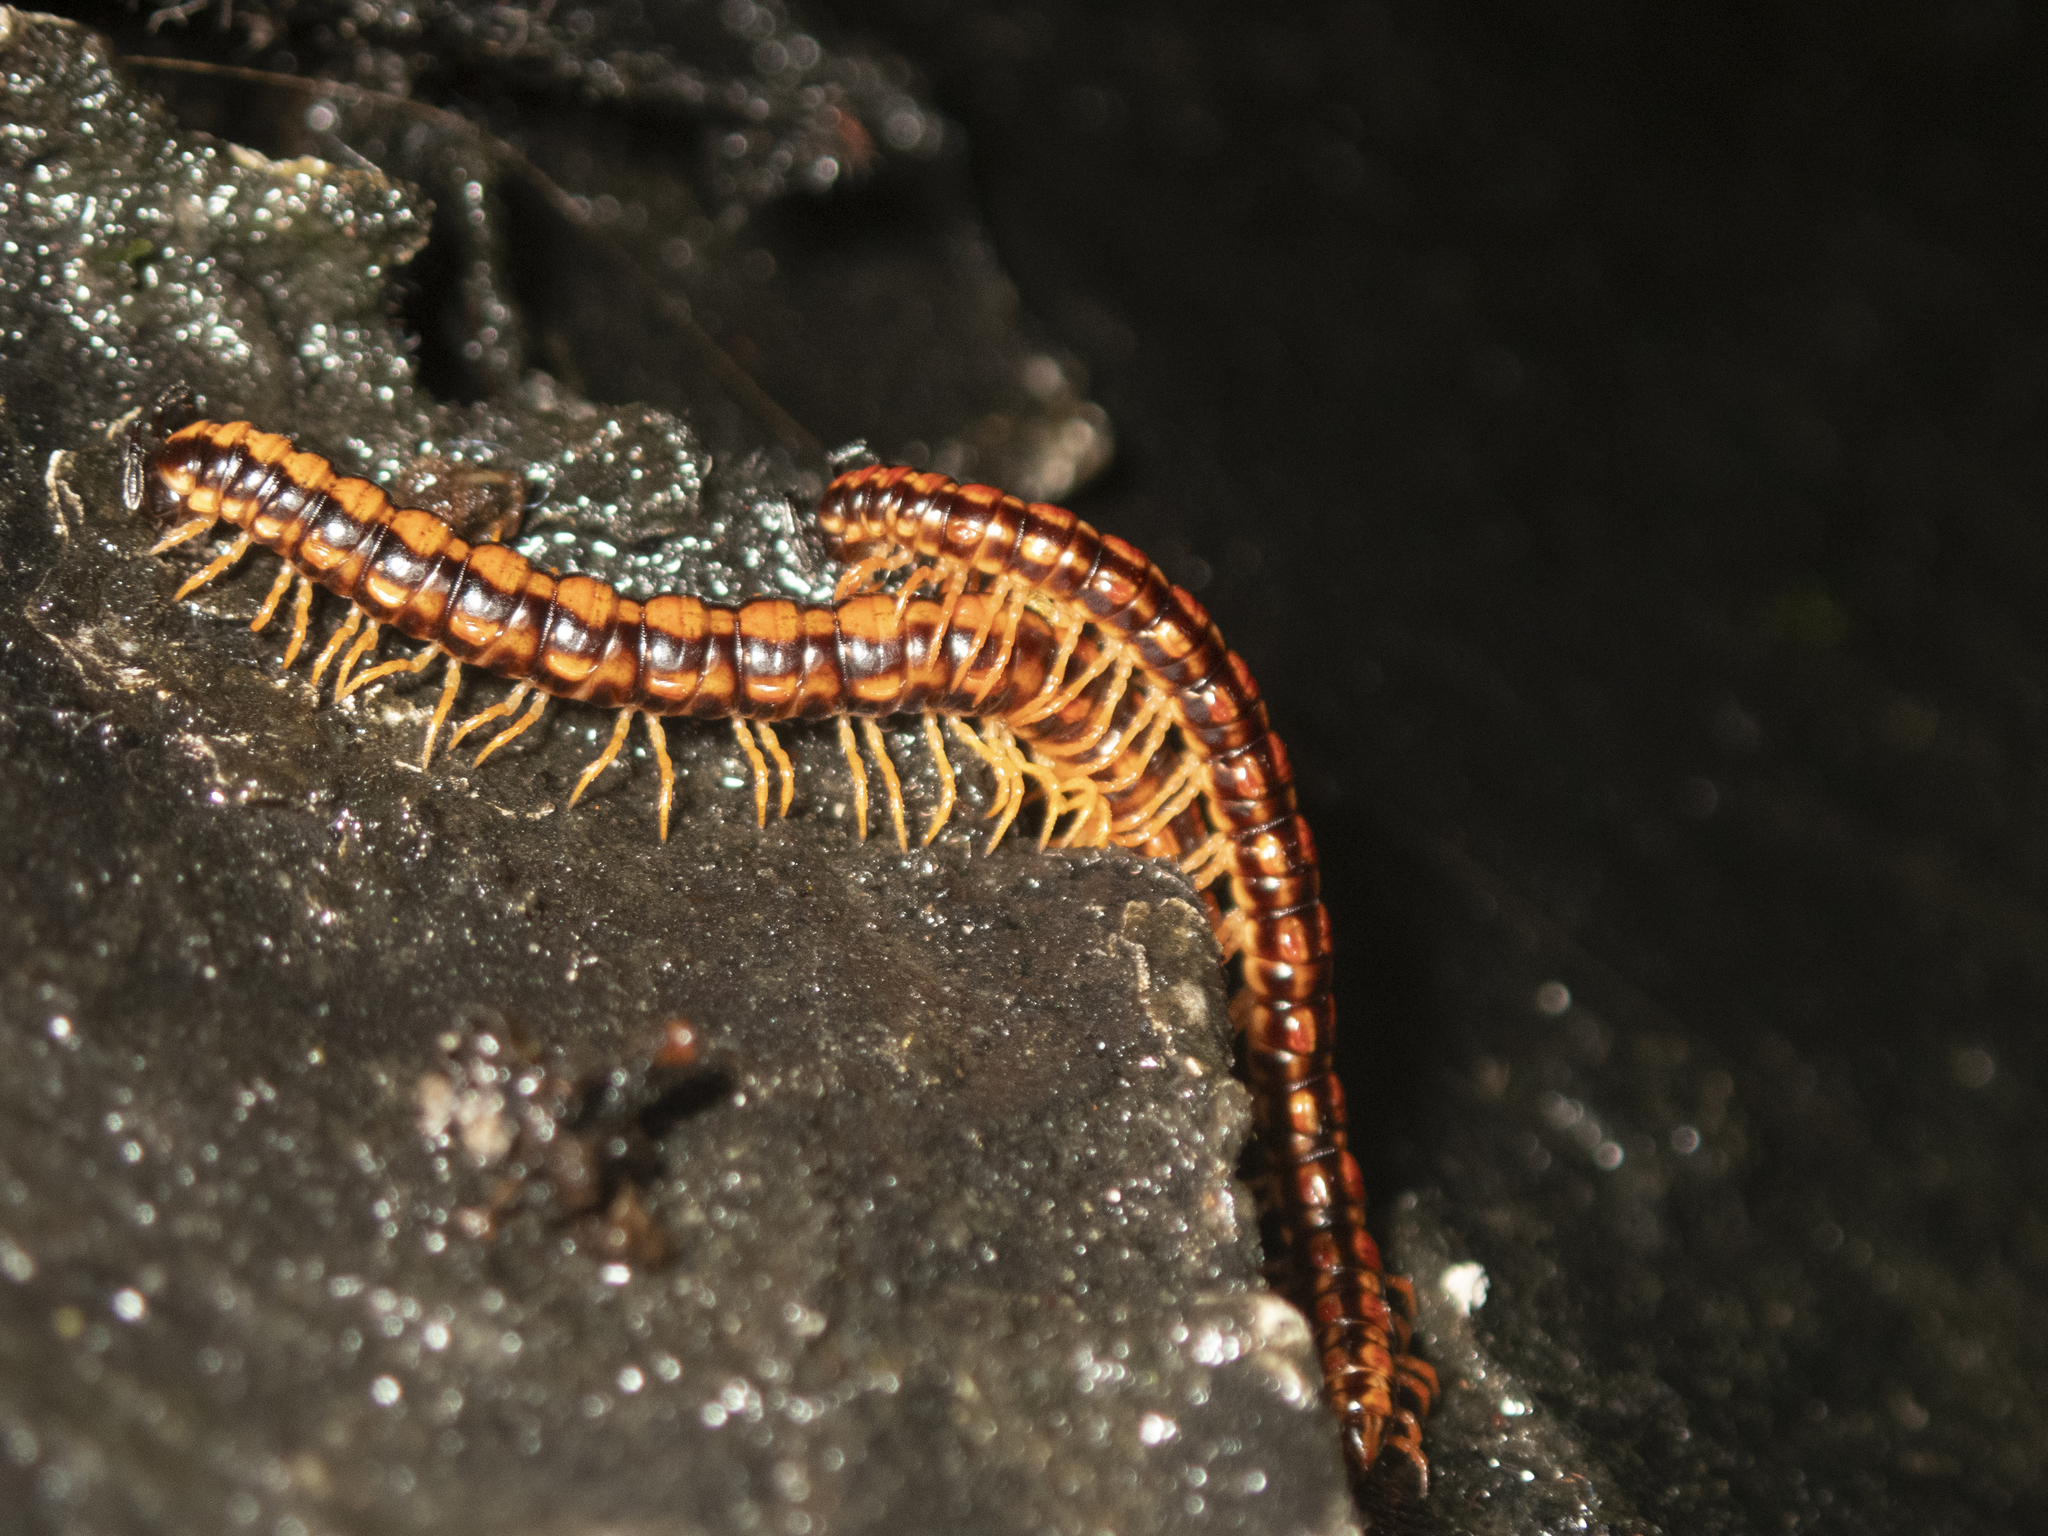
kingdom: Animalia
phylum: Arthropoda
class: Diplopoda
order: Polydesmida
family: Paradoxosomatidae
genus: Helicorthomorpha
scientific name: Helicorthomorpha holstii
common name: Millipede
